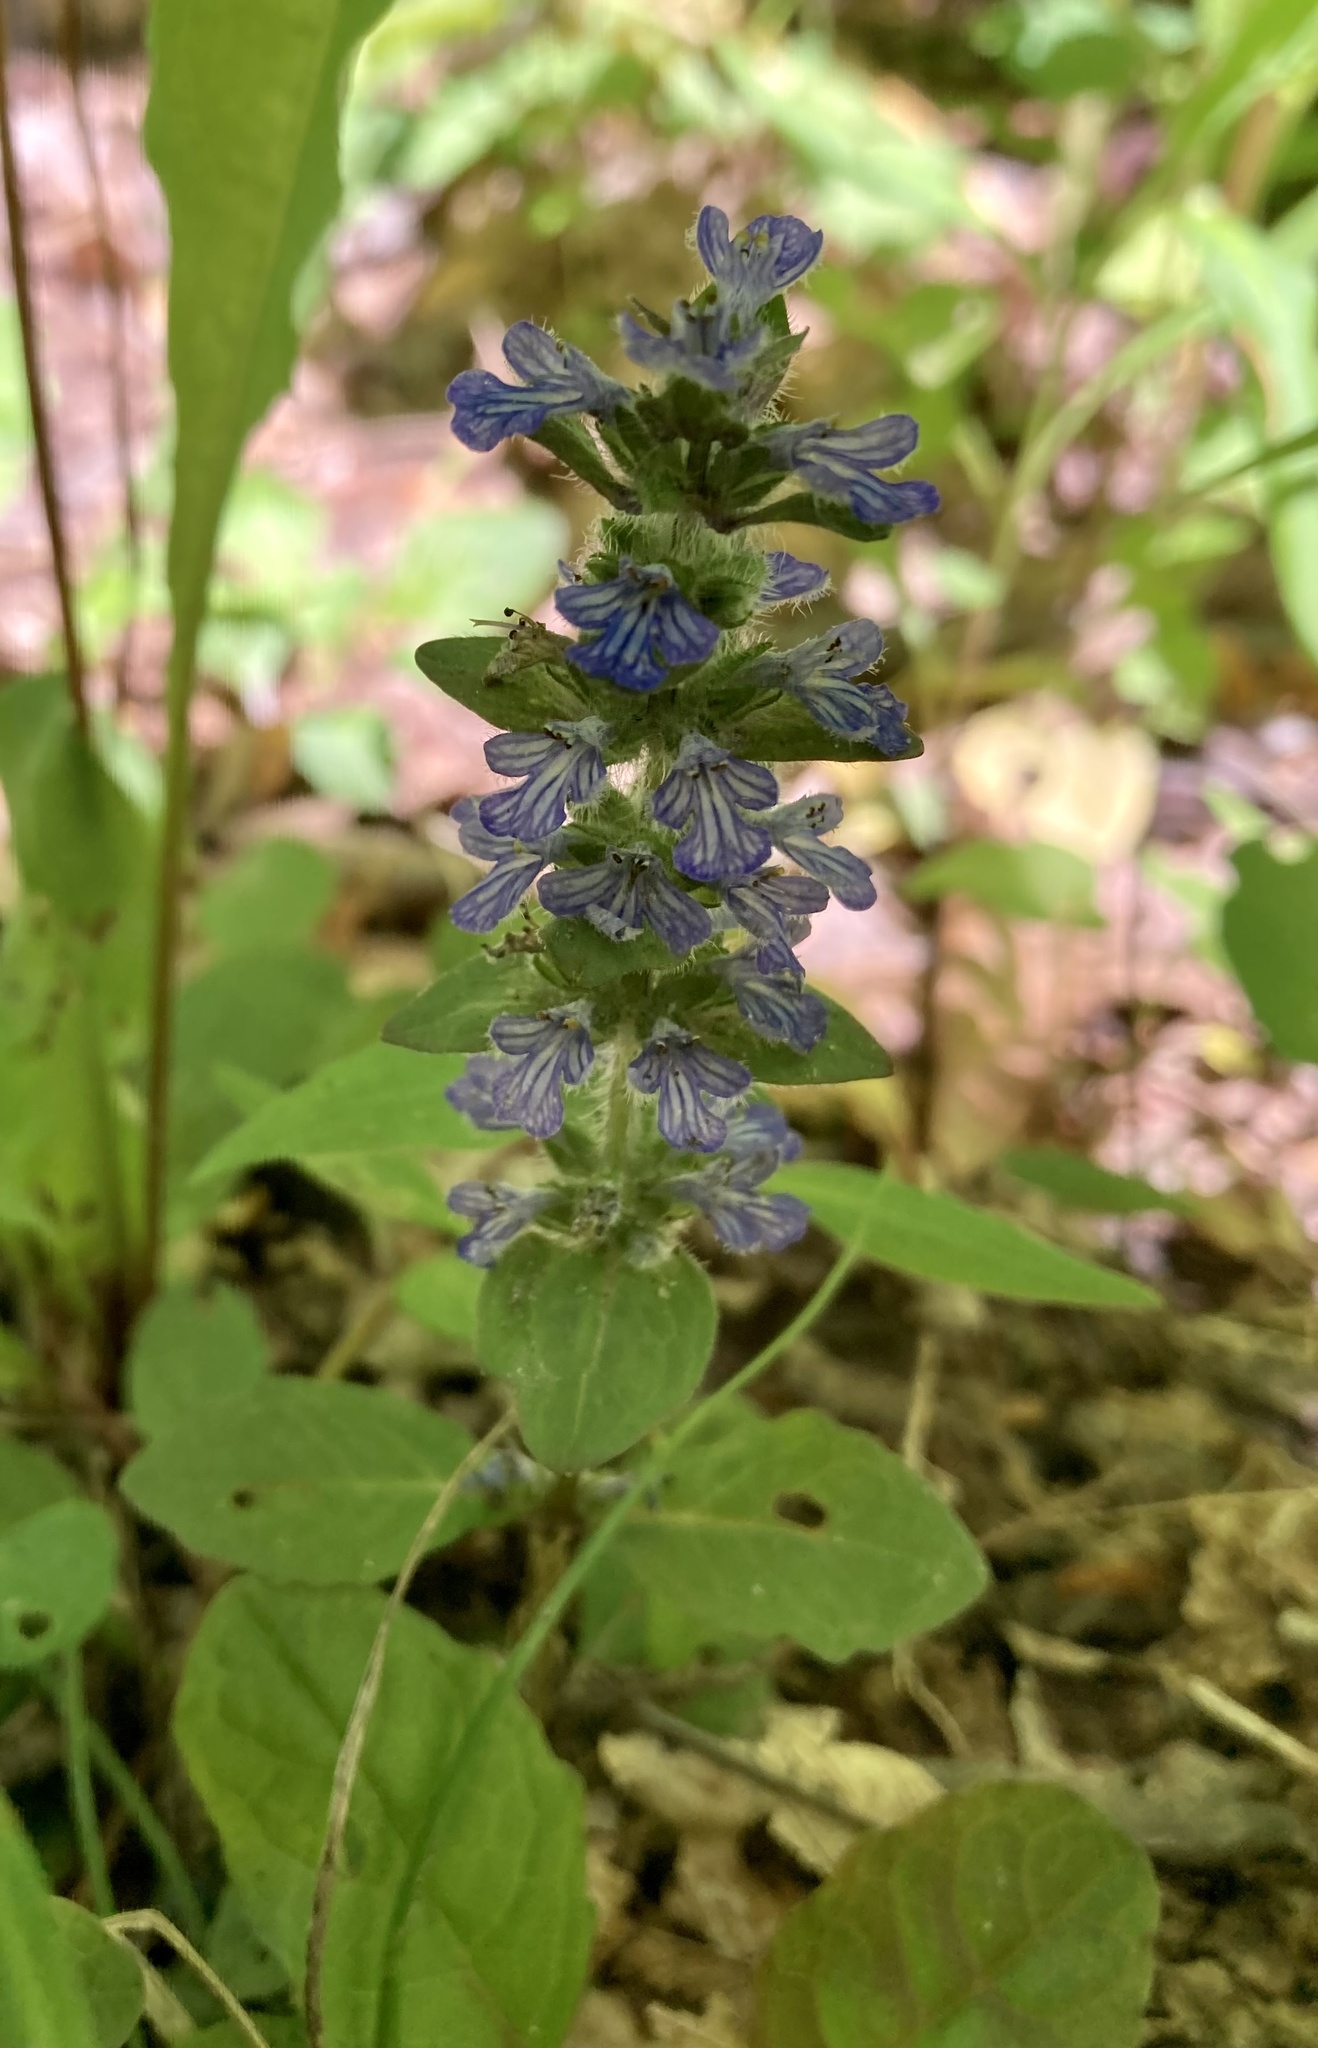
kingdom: Plantae
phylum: Tracheophyta
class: Magnoliopsida
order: Lamiales
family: Lamiaceae
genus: Ajuga
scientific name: Ajuga reptans
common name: Bugle
